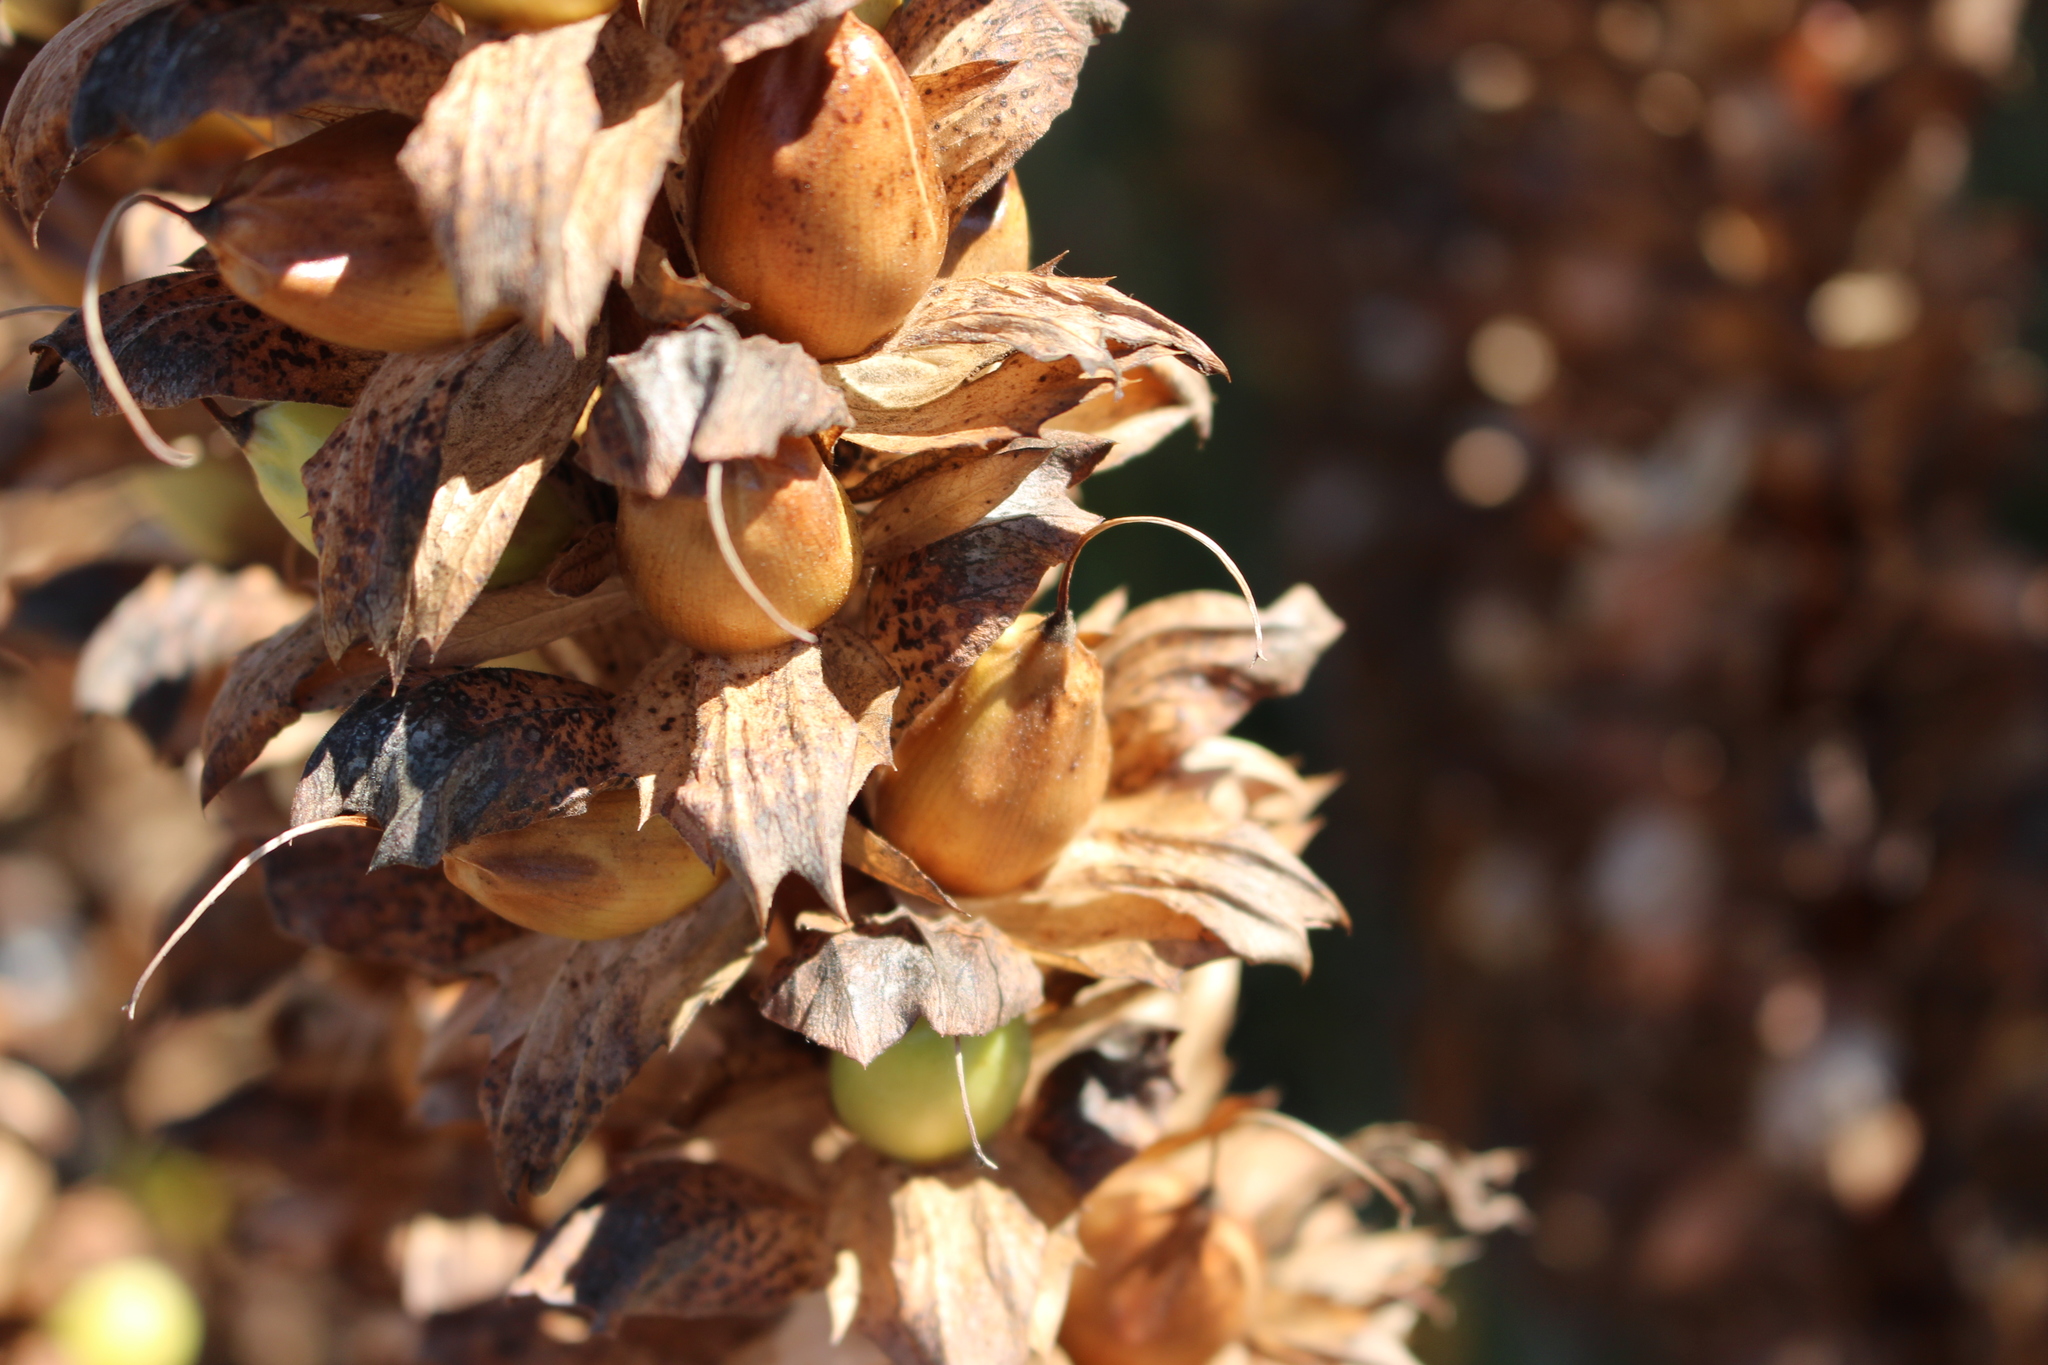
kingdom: Plantae
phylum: Tracheophyta
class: Magnoliopsida
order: Lamiales
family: Acanthaceae
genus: Acanthus
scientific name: Acanthus mollis
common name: Bear's-breech
